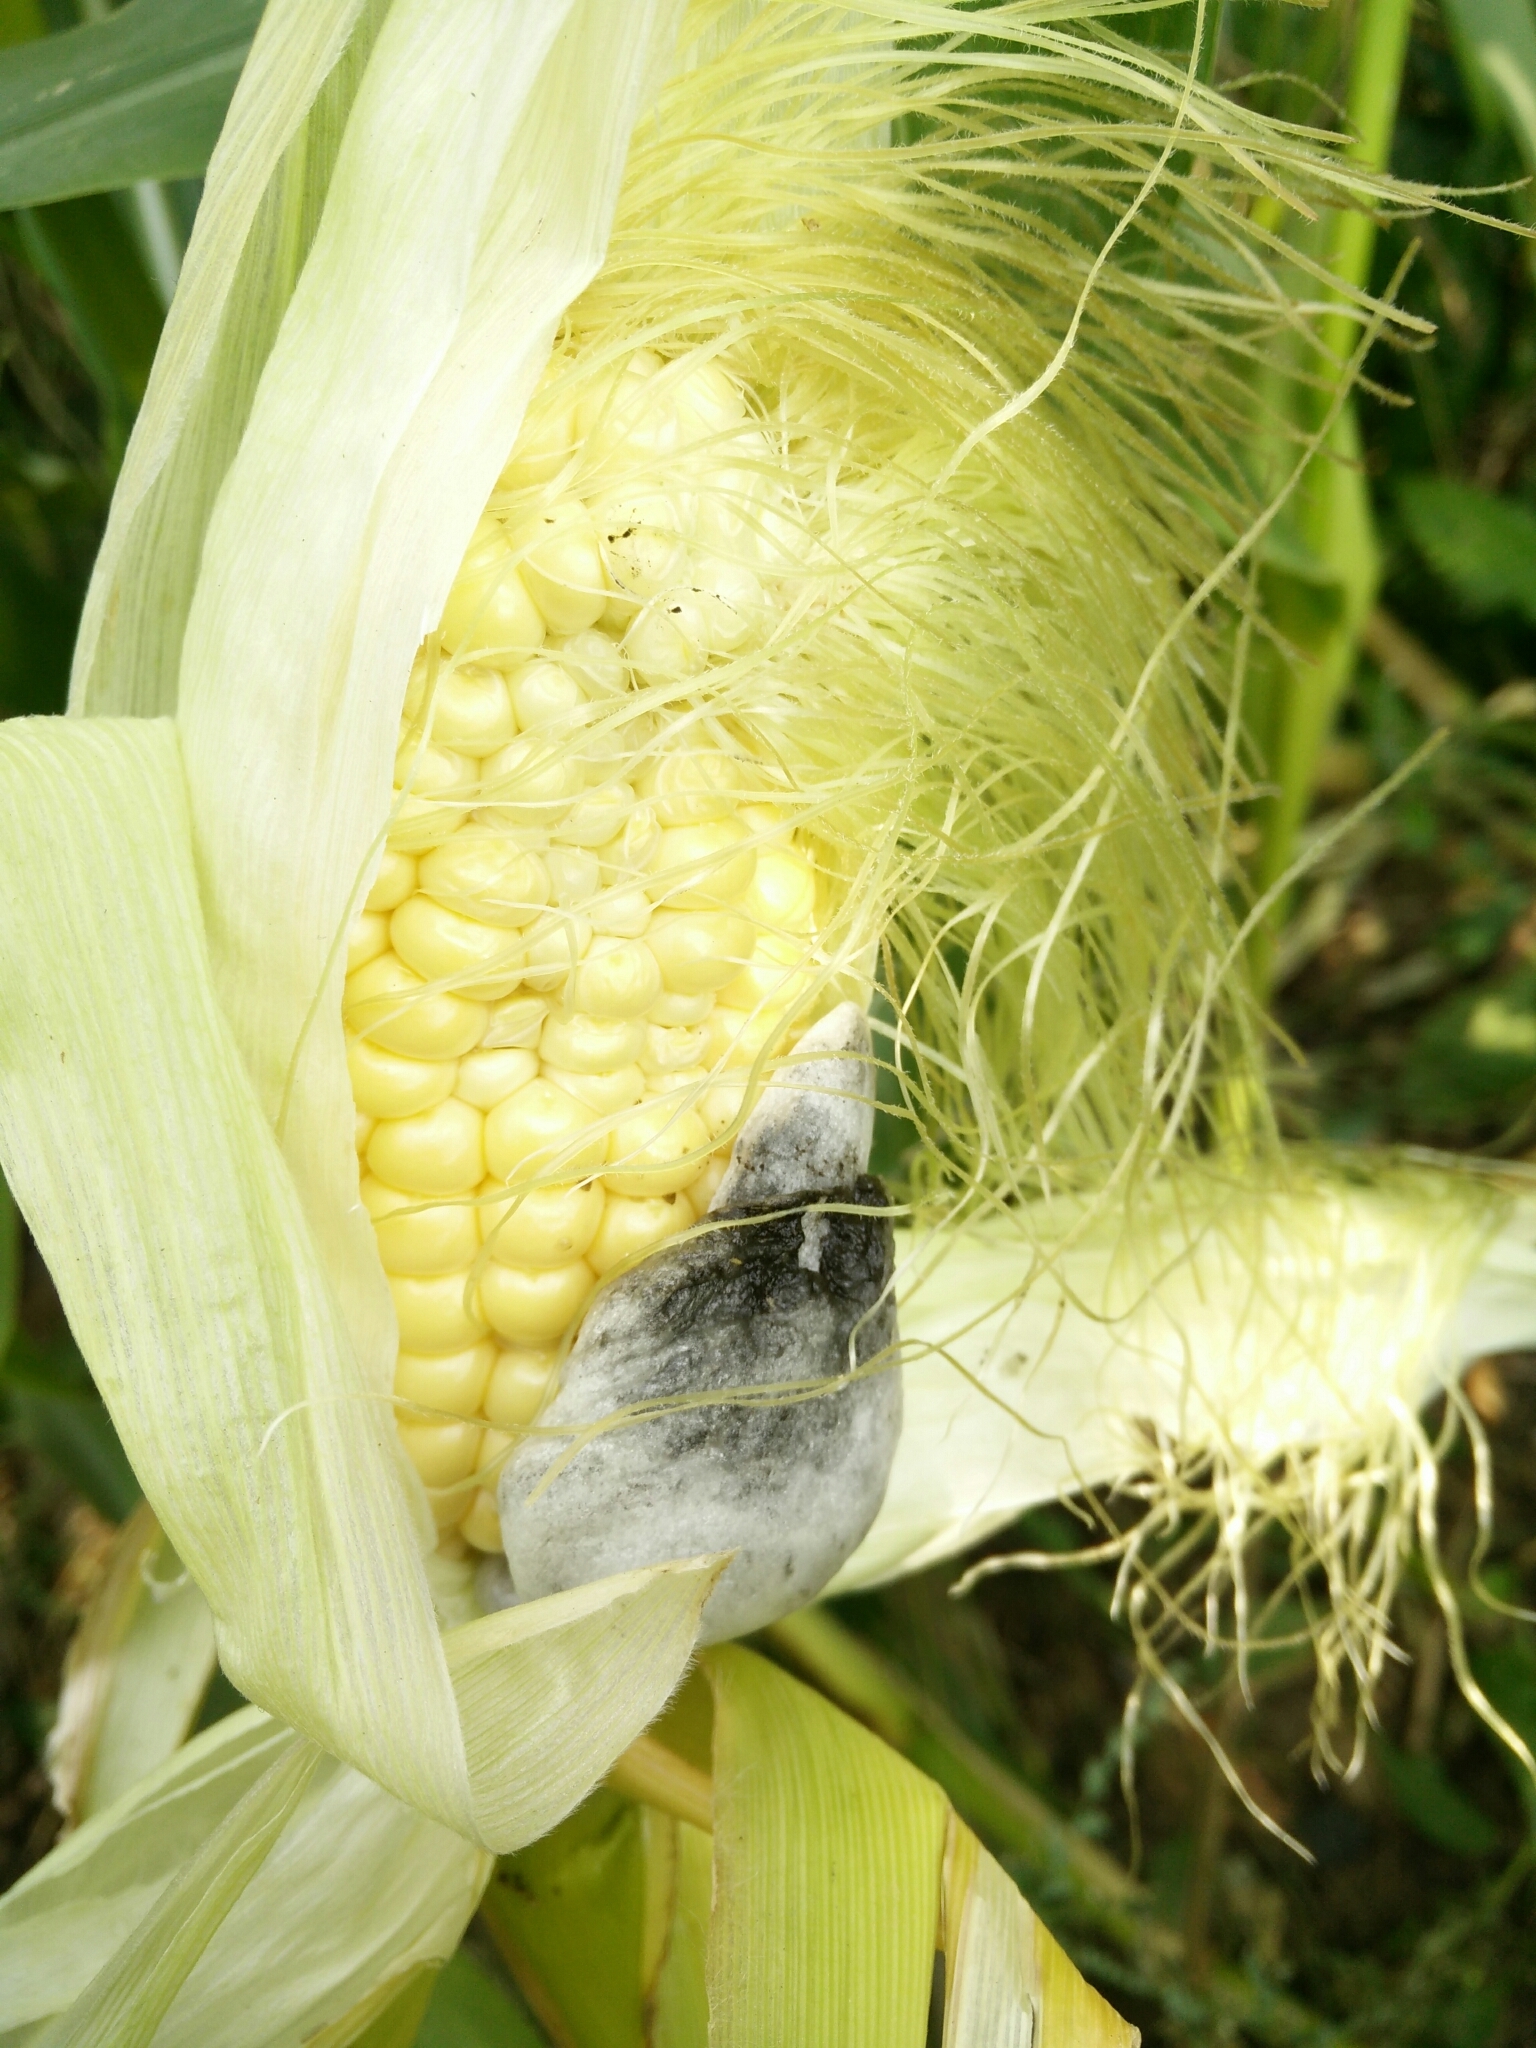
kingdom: Fungi
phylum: Basidiomycota
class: Ustilaginomycetes
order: Ustilaginales
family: Ustilaginaceae
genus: Mycosarcoma
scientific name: Mycosarcoma maydis
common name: Corn smut
